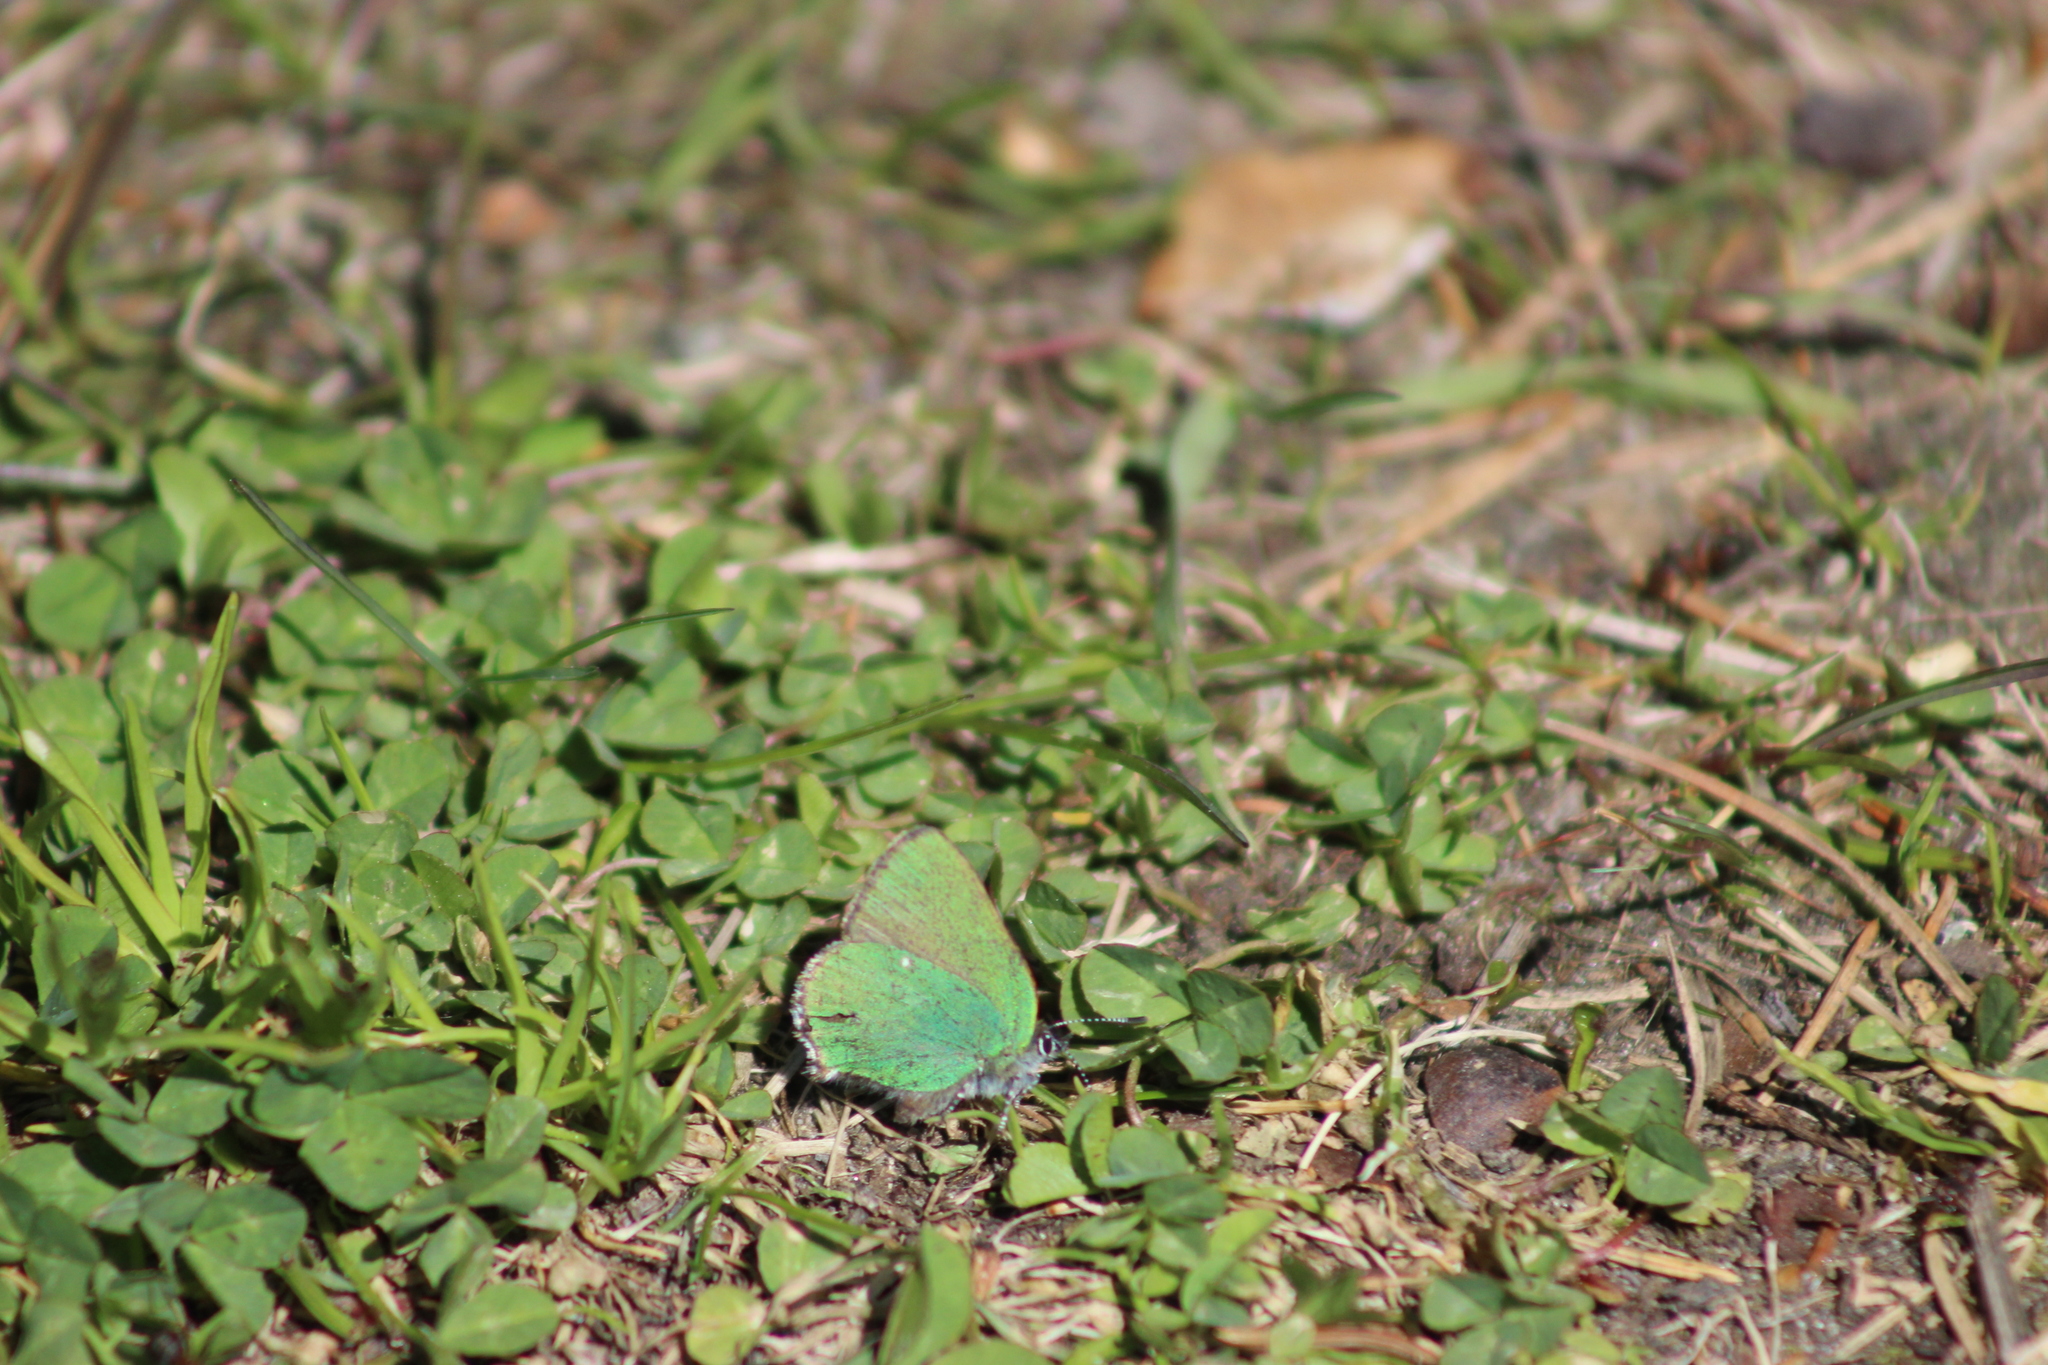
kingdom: Animalia
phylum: Arthropoda
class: Insecta
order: Lepidoptera
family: Lycaenidae
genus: Callophrys
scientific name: Callophrys rubi
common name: Green hairstreak
